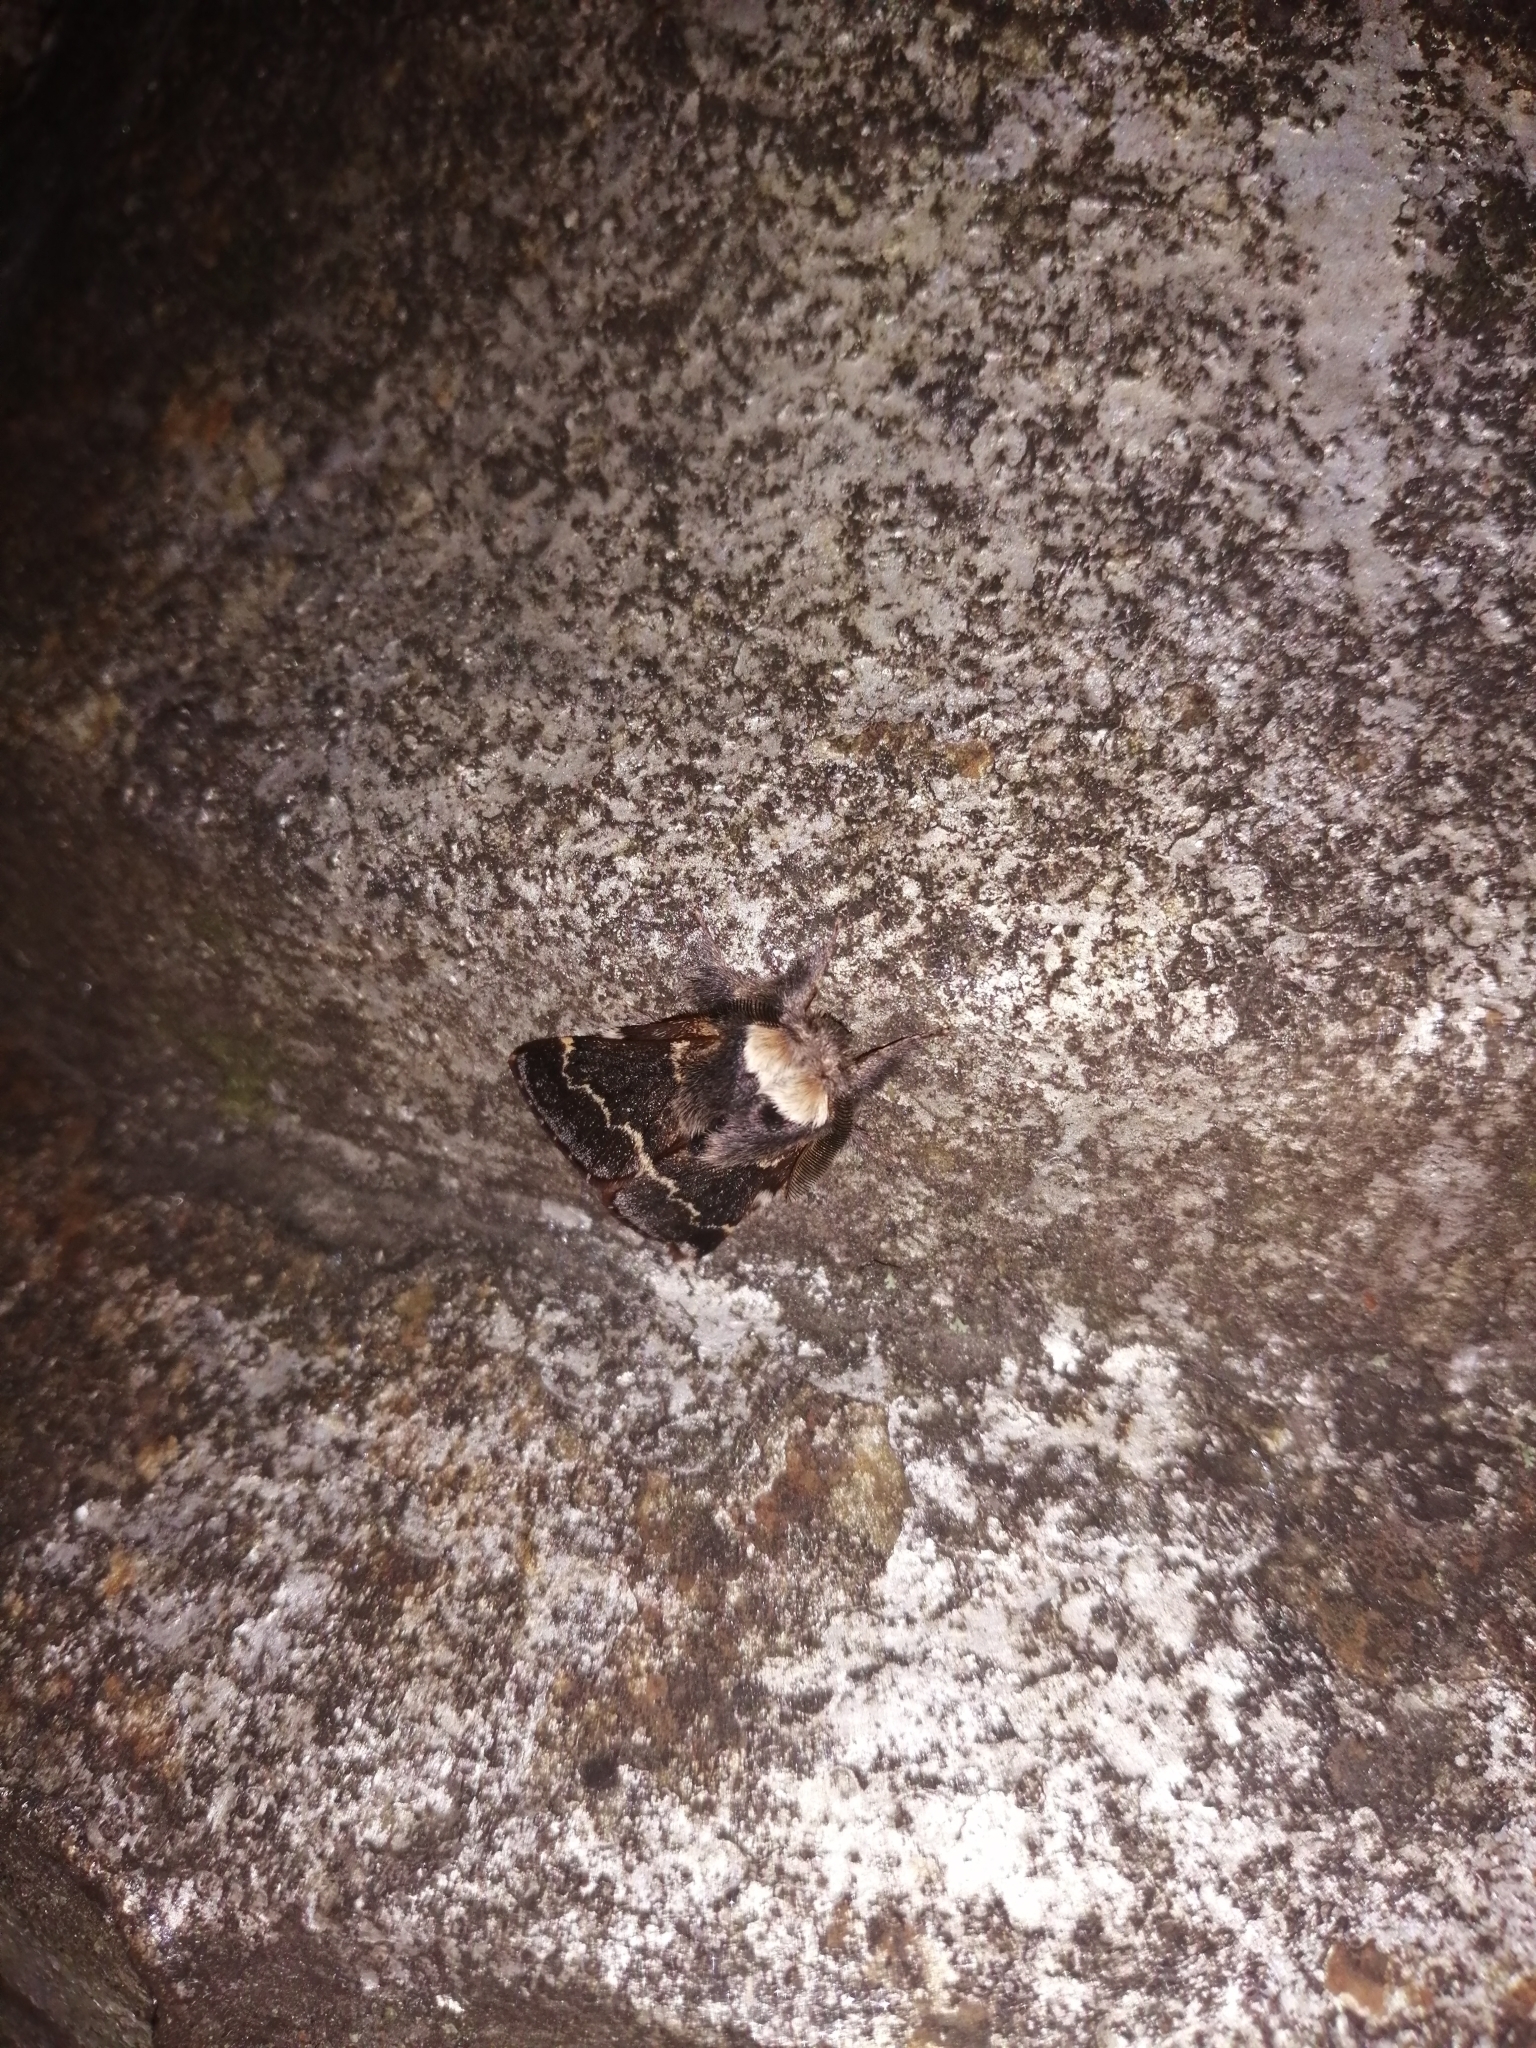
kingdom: Animalia
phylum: Arthropoda
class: Insecta
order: Lepidoptera
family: Lasiocampidae
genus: Poecilocampa
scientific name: Poecilocampa populi
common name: December moth
